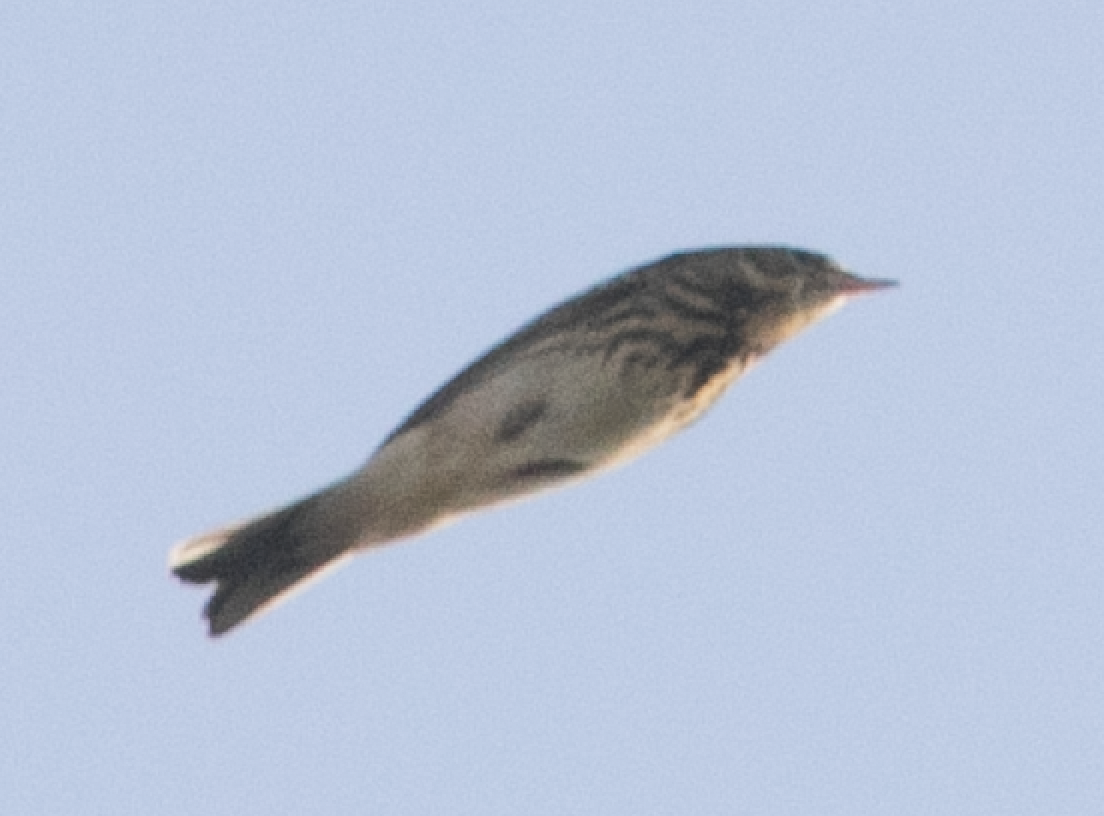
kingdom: Animalia
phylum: Chordata
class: Aves
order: Passeriformes
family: Motacillidae
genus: Anthus
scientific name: Anthus trivialis
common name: Tree pipit
